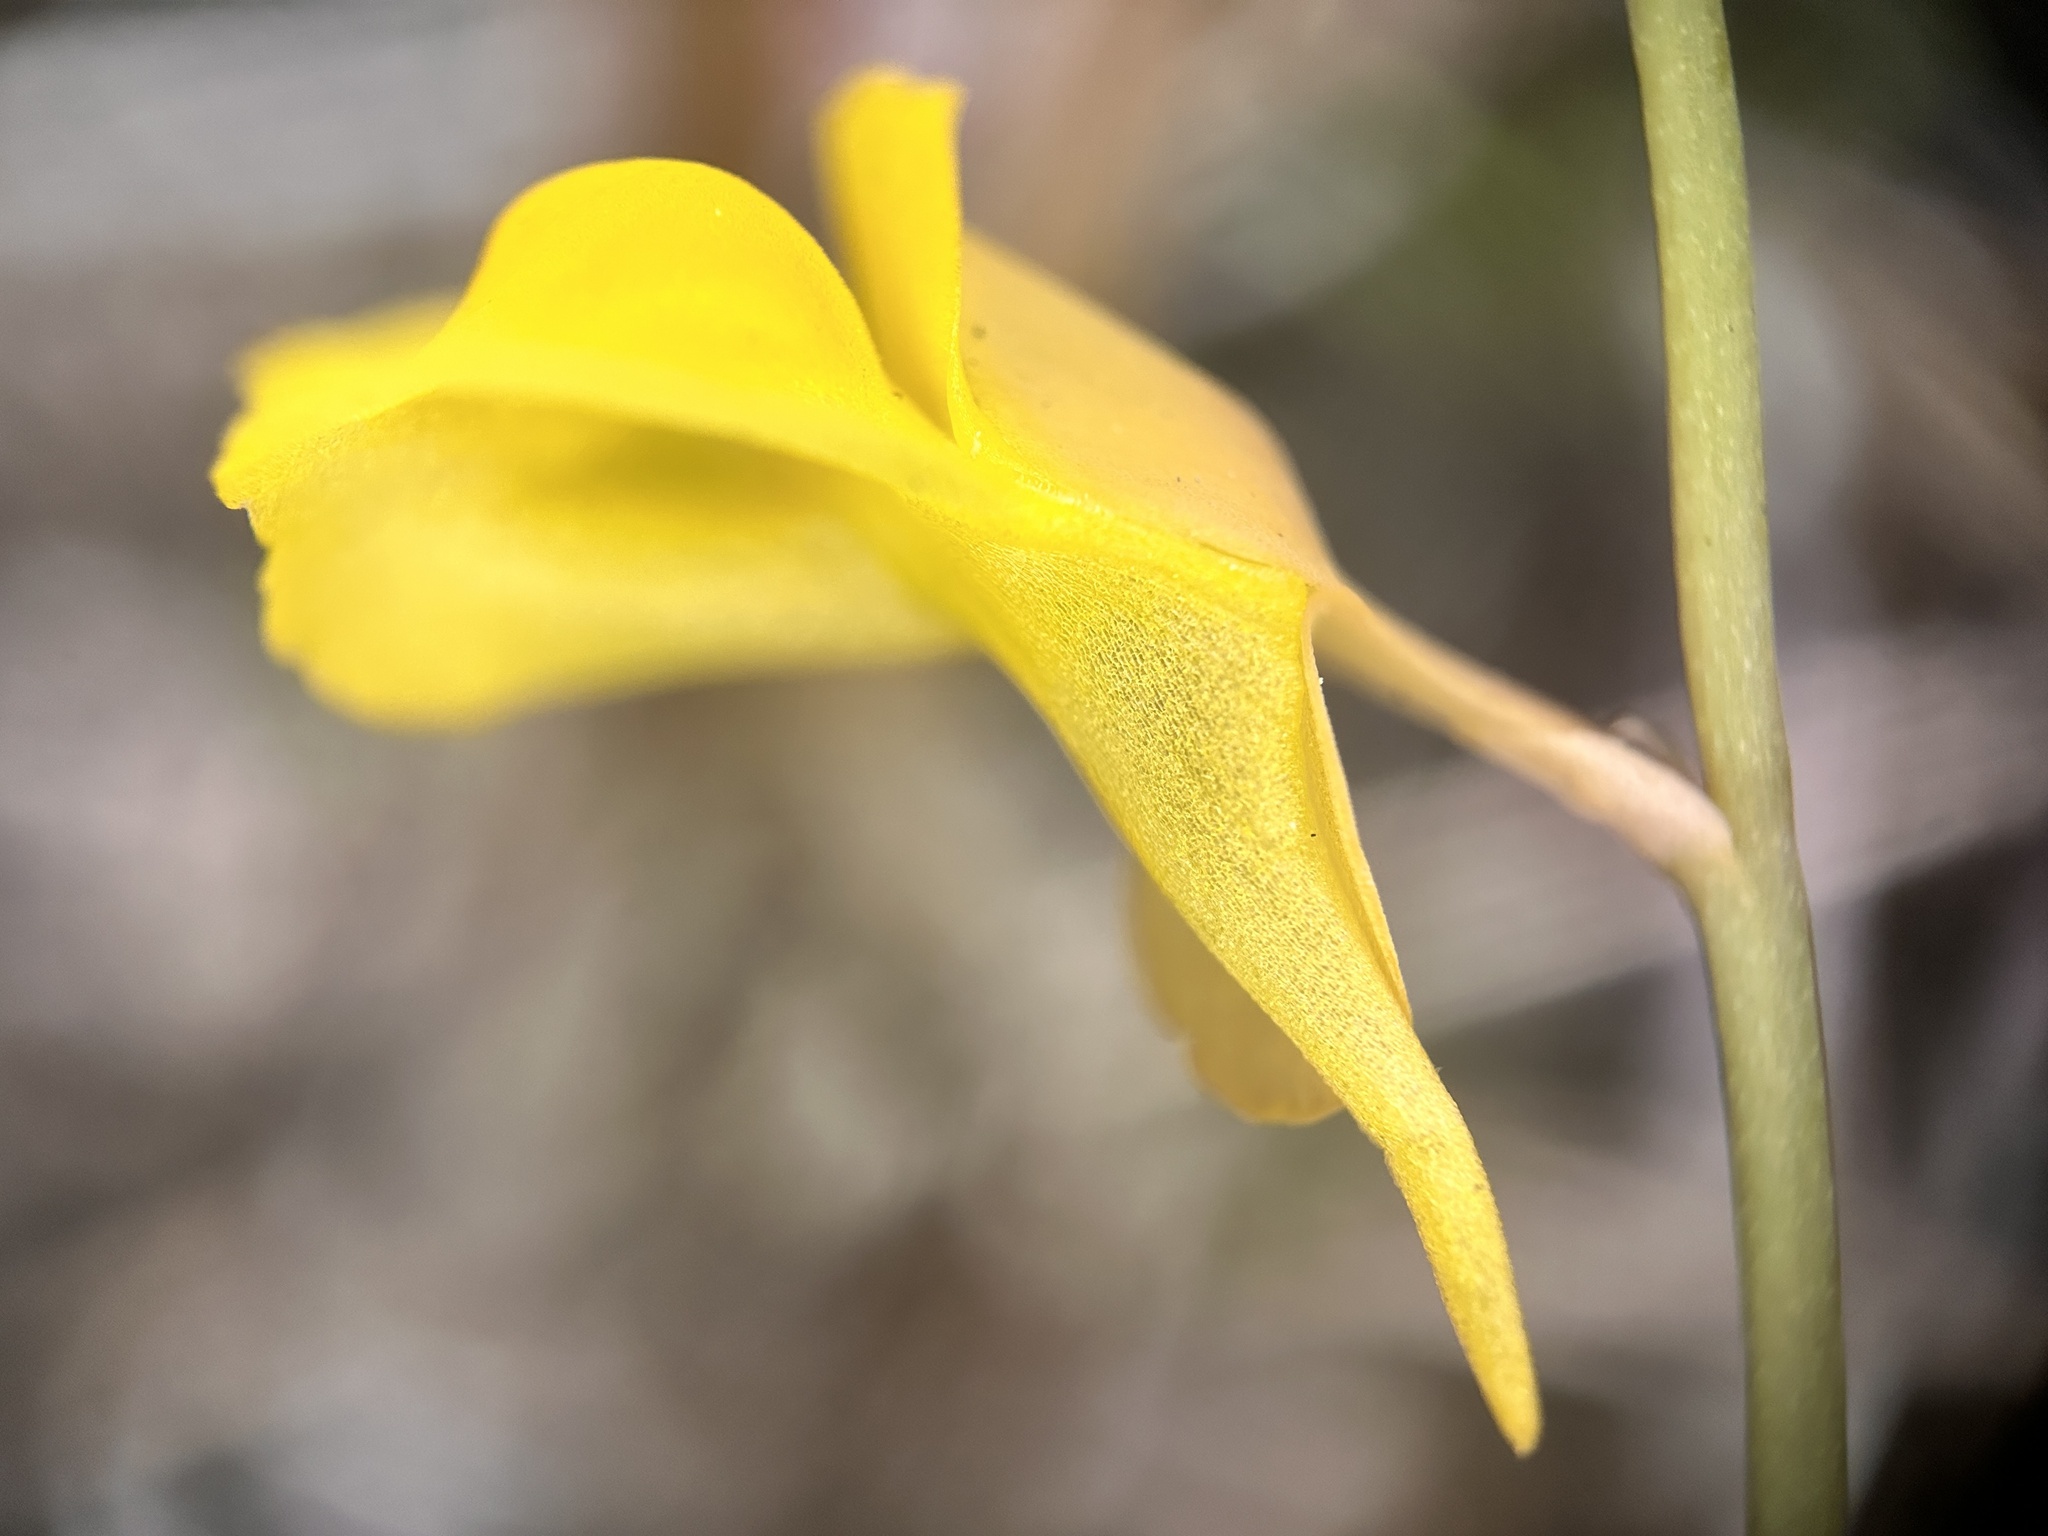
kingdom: Plantae
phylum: Tracheophyta
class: Magnoliopsida
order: Lamiales
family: Lentibulariaceae
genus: Utricularia
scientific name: Utricularia bifida
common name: Bifid bladderwort
